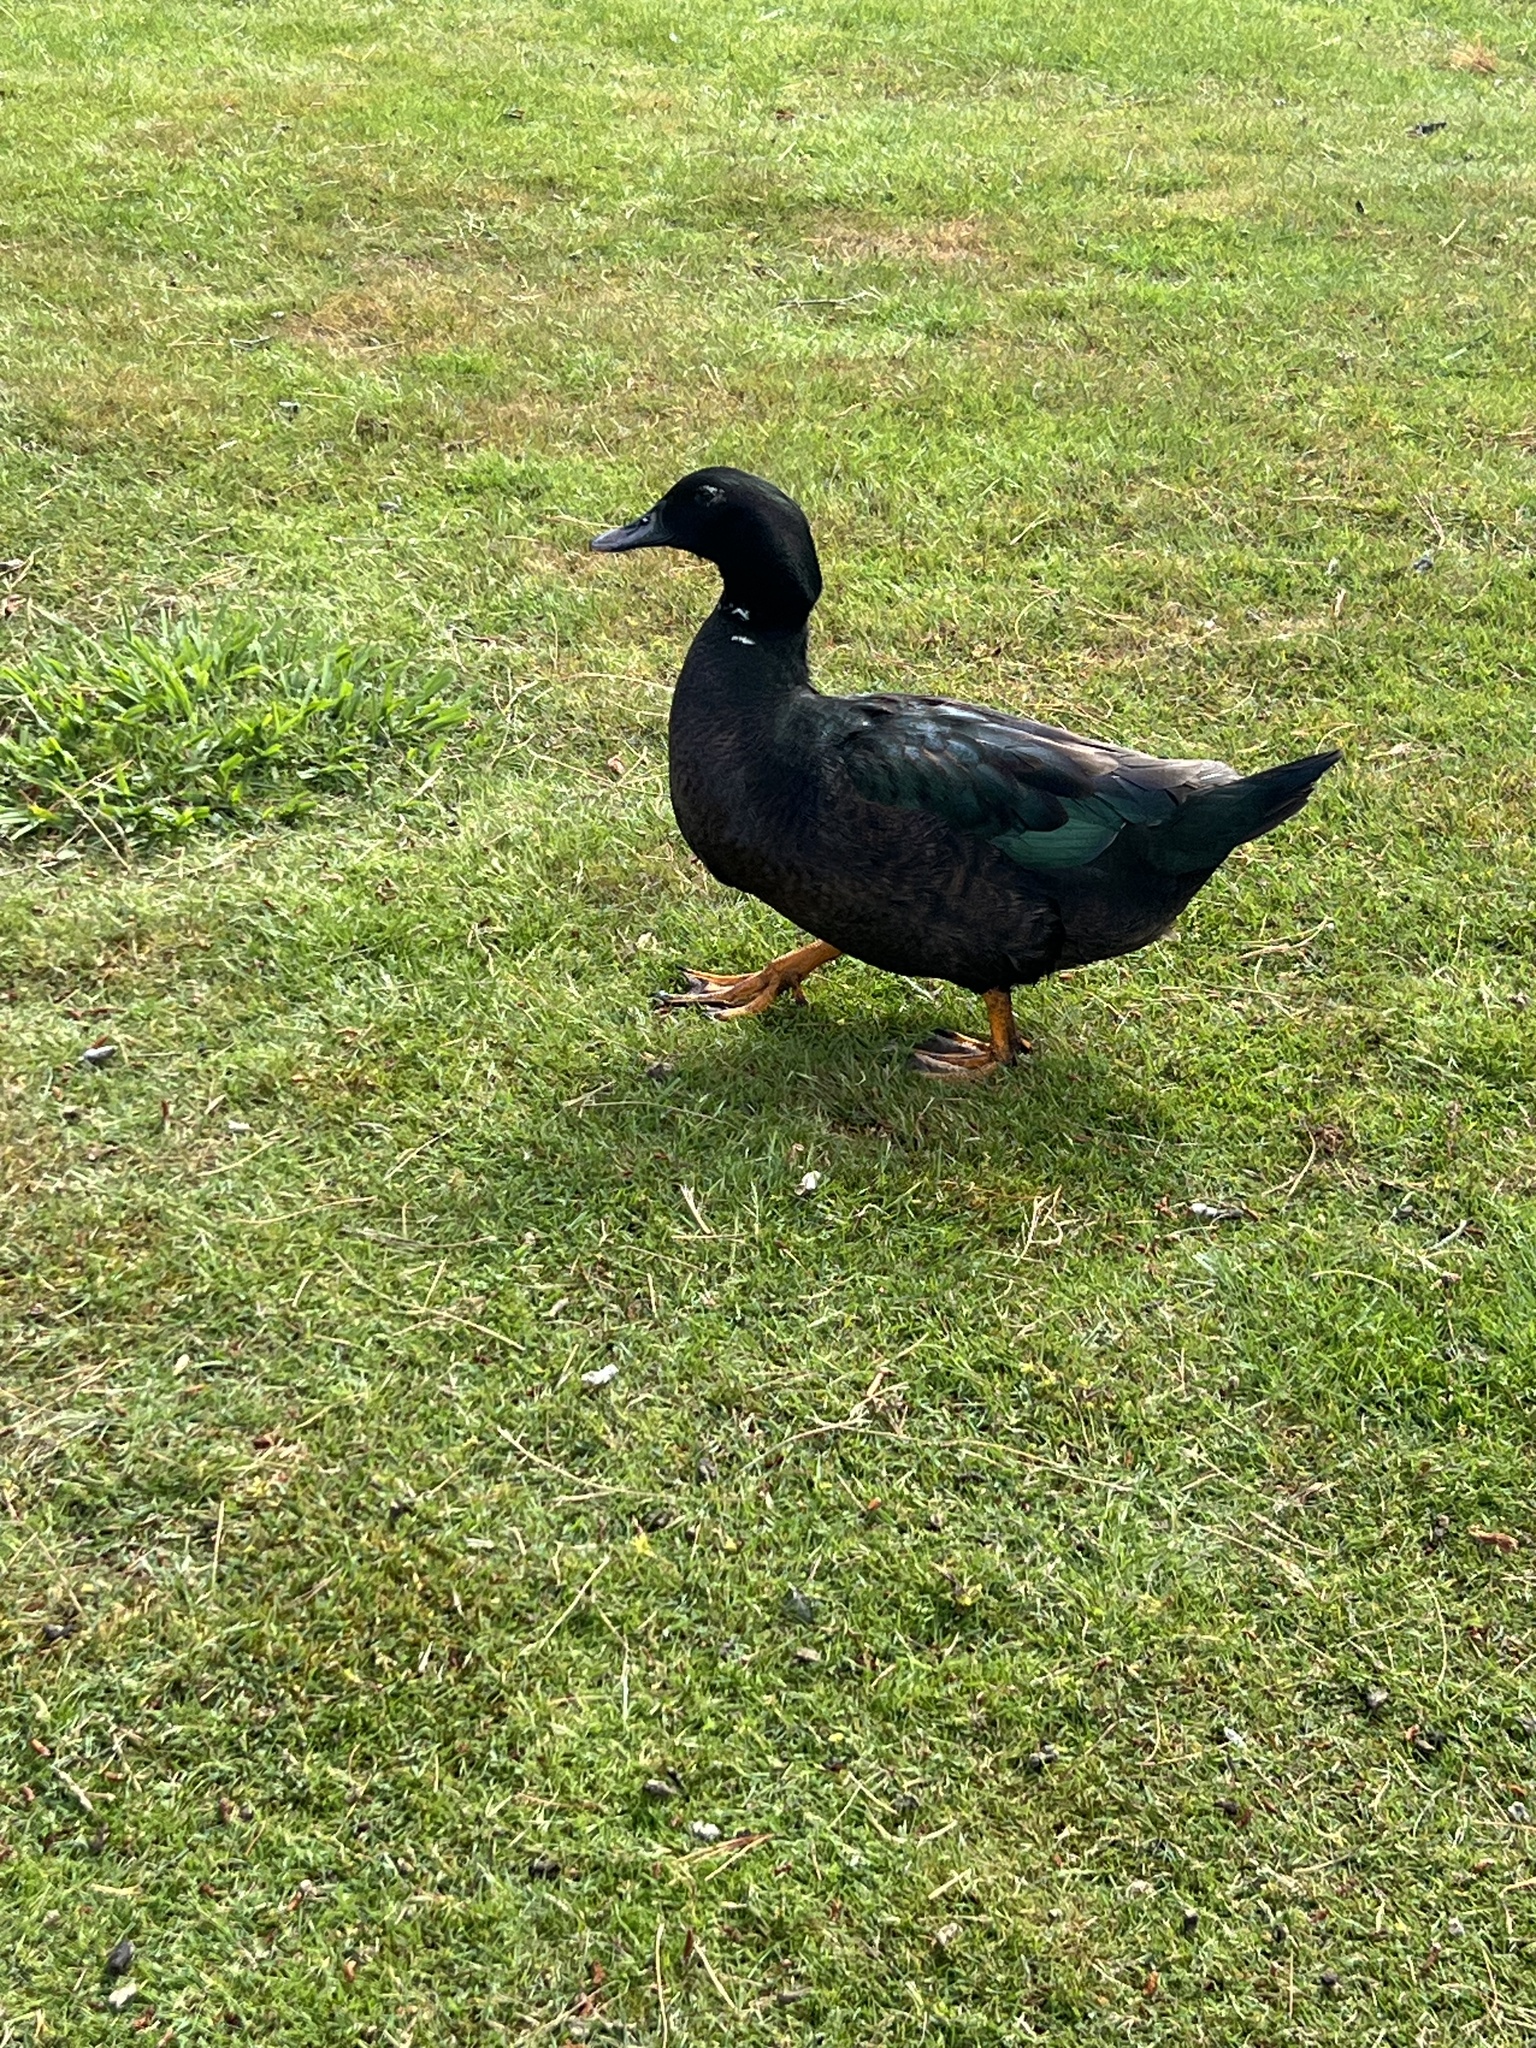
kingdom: Animalia
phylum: Chordata
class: Aves
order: Anseriformes
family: Anatidae
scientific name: Anatidae
